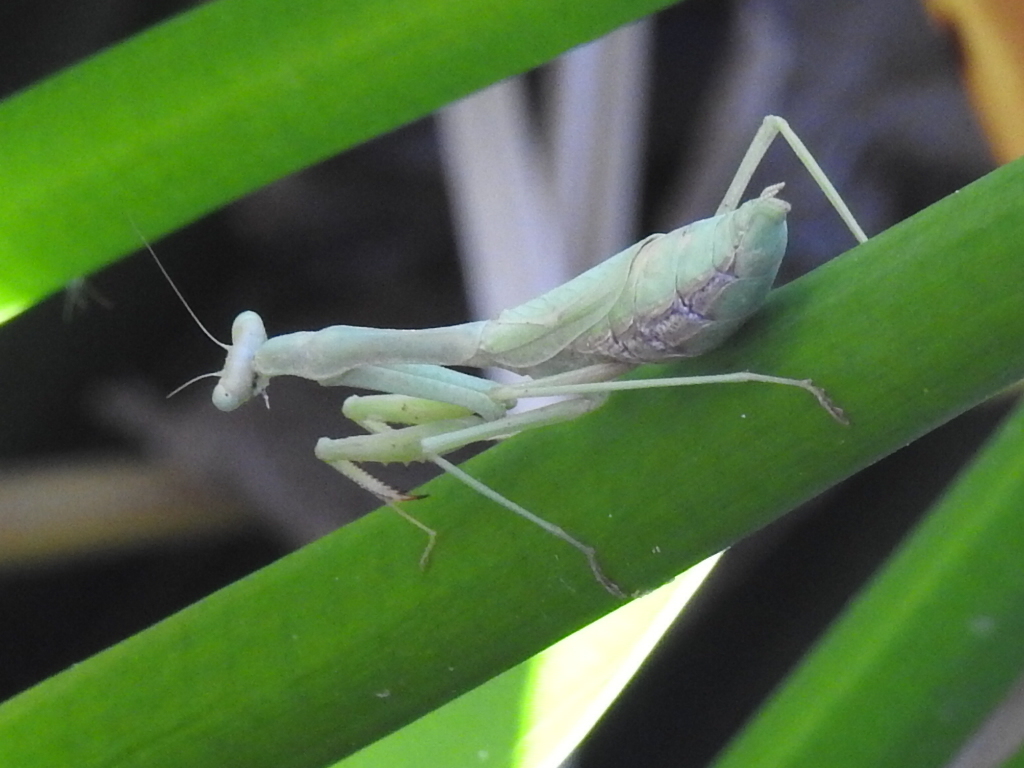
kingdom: Animalia
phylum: Arthropoda
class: Insecta
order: Mantodea
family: Mantidae
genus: Stagmomantis
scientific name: Stagmomantis carolina
